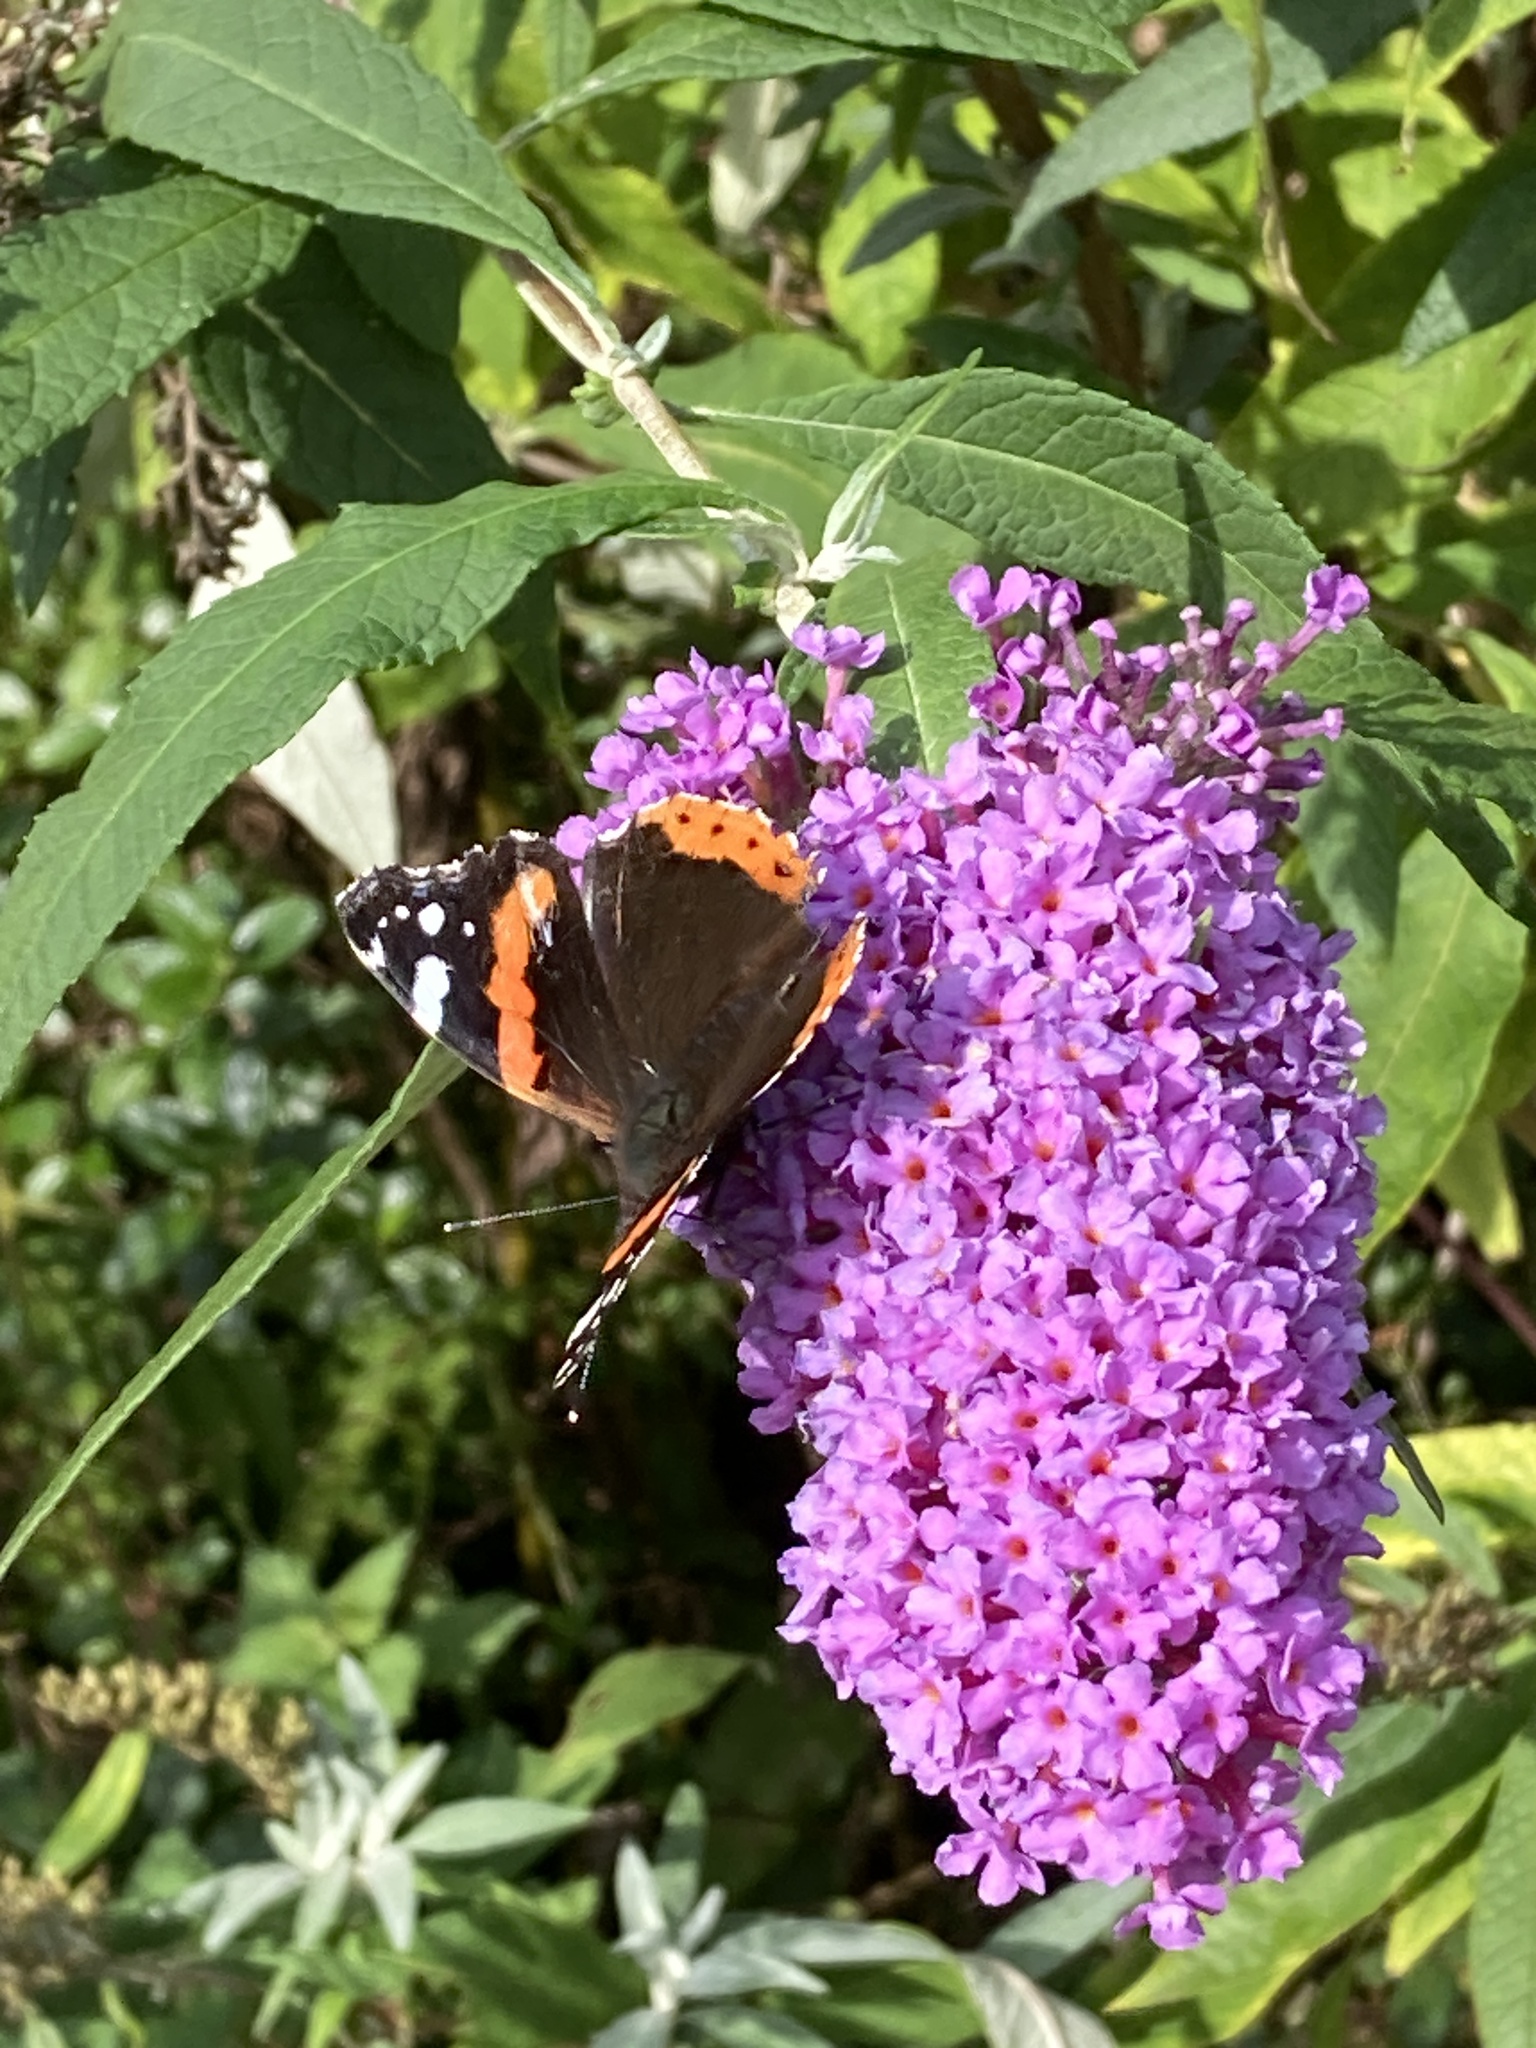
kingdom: Animalia
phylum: Arthropoda
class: Insecta
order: Lepidoptera
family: Nymphalidae
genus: Vanessa
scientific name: Vanessa atalanta
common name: Red admiral
